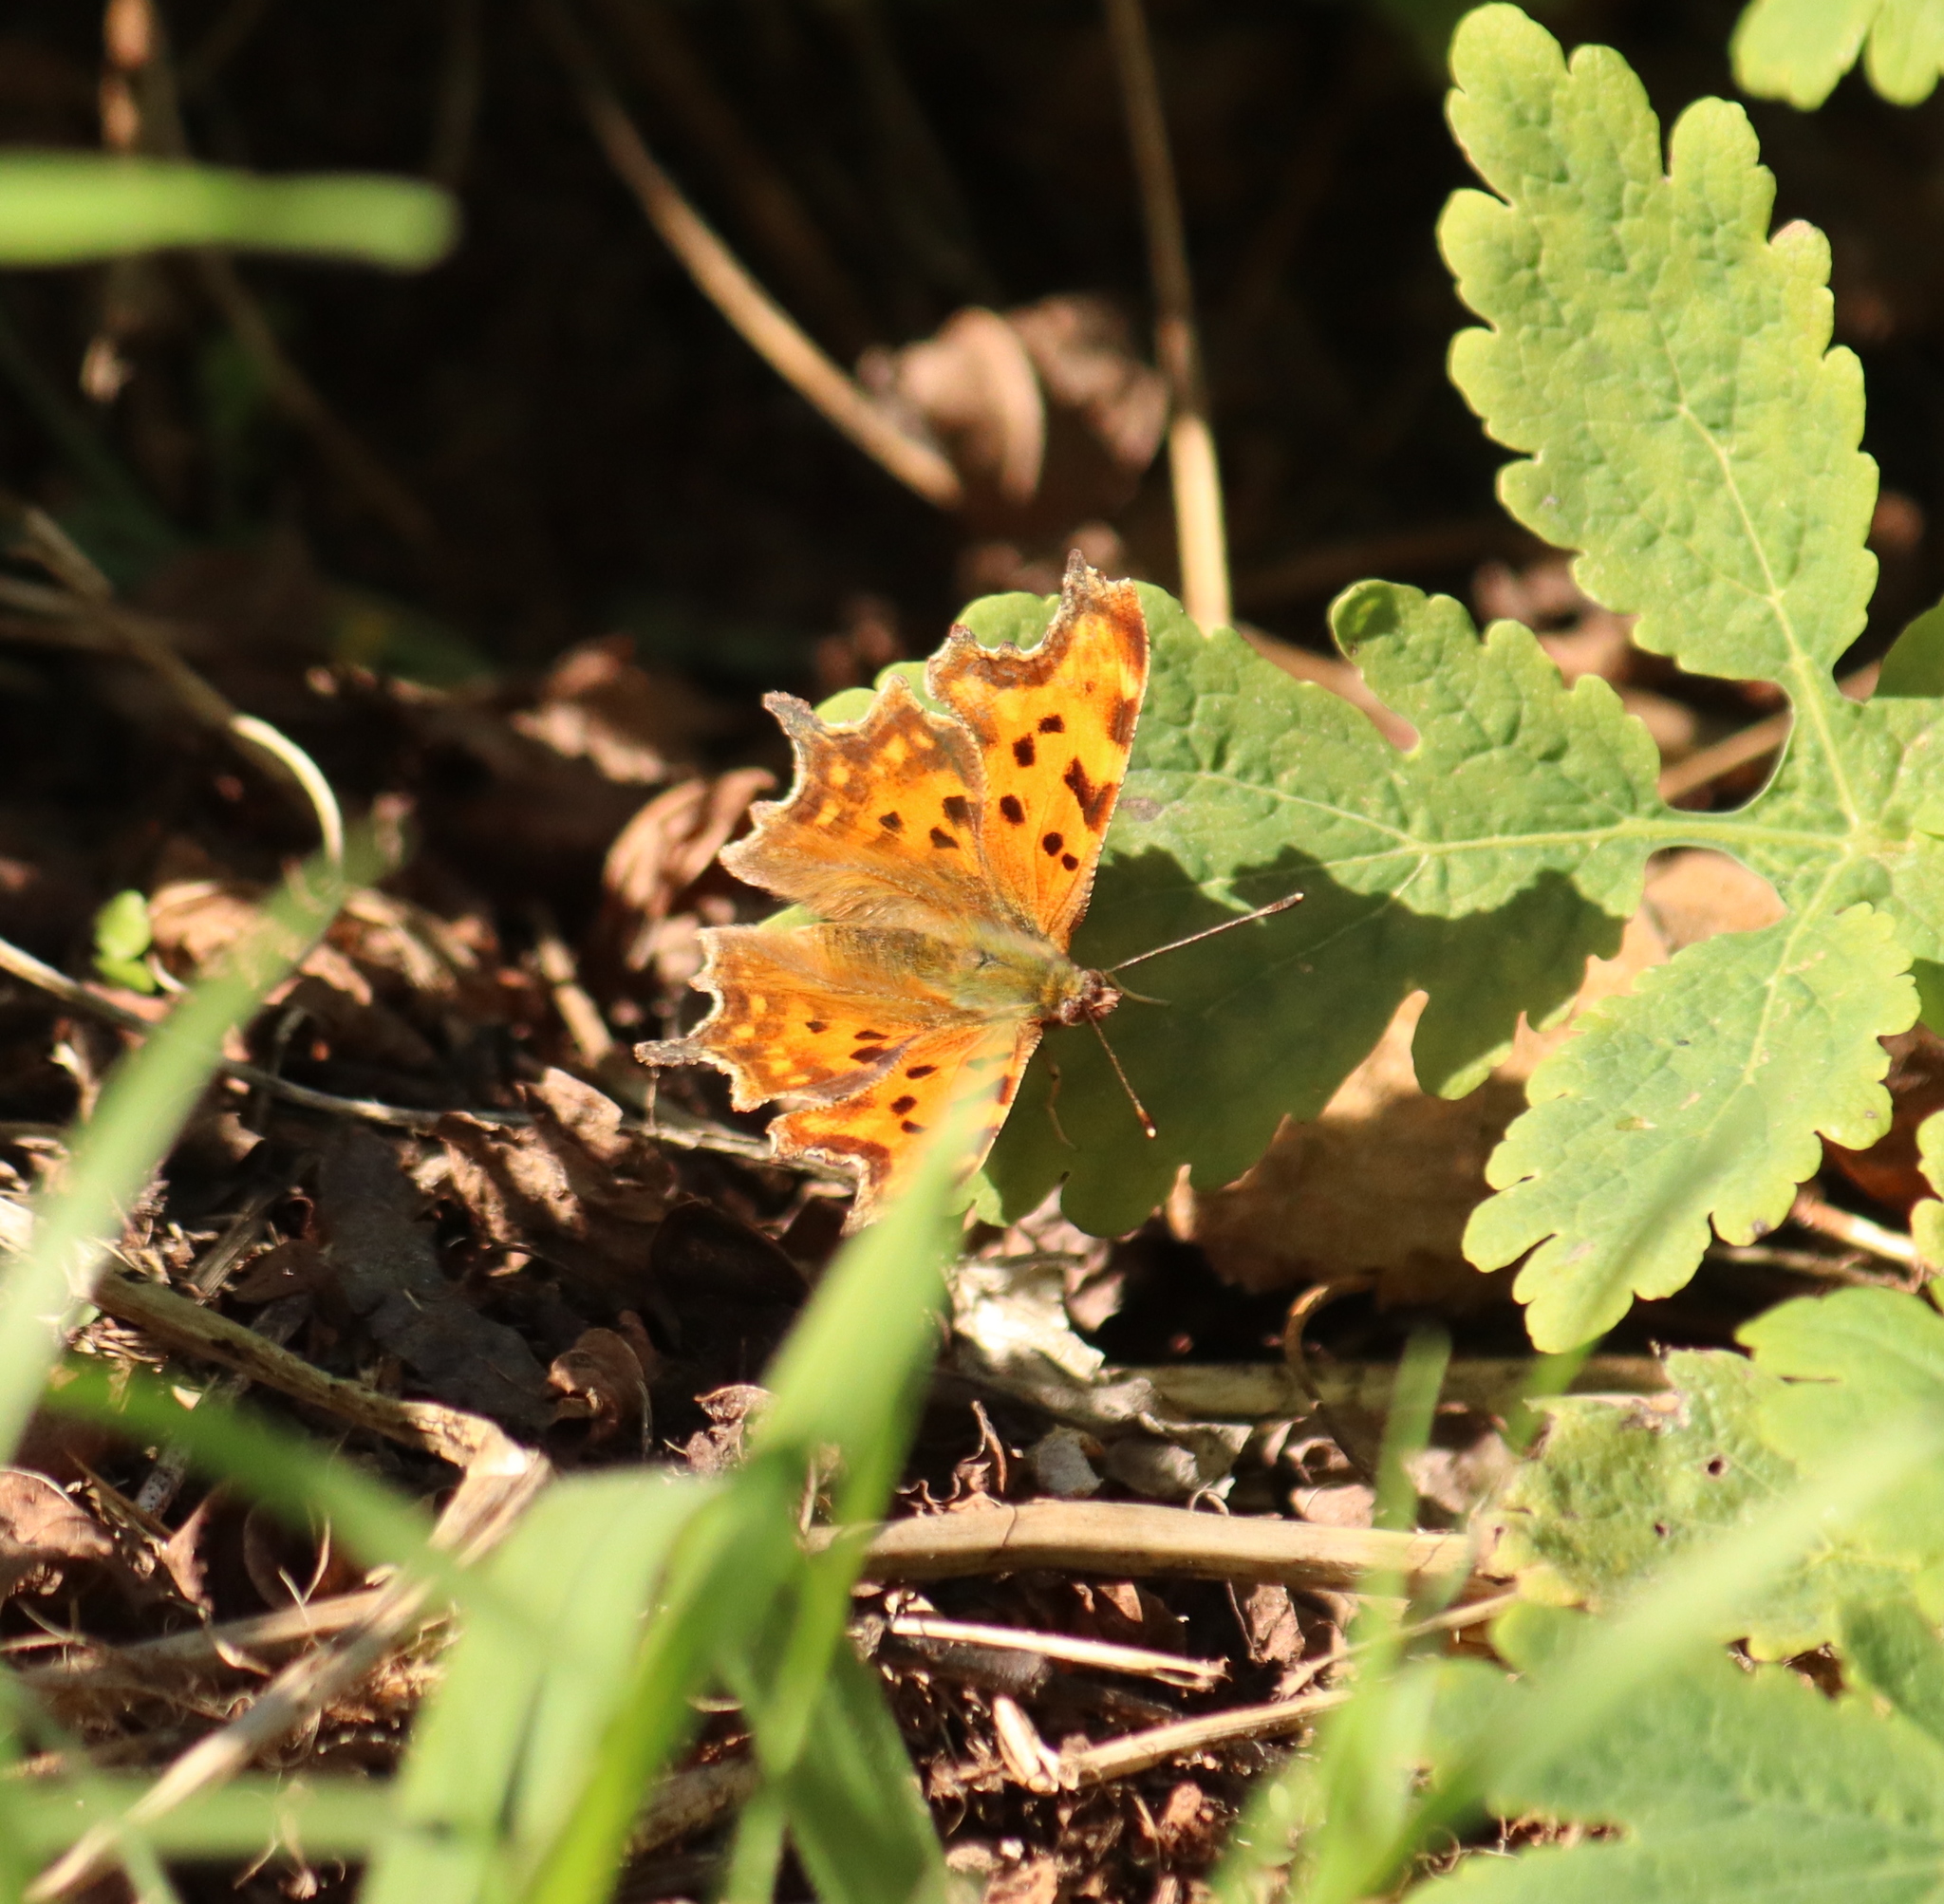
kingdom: Animalia
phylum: Arthropoda
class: Insecta
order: Lepidoptera
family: Nymphalidae
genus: Polygonia
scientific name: Polygonia c-album
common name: Comma
